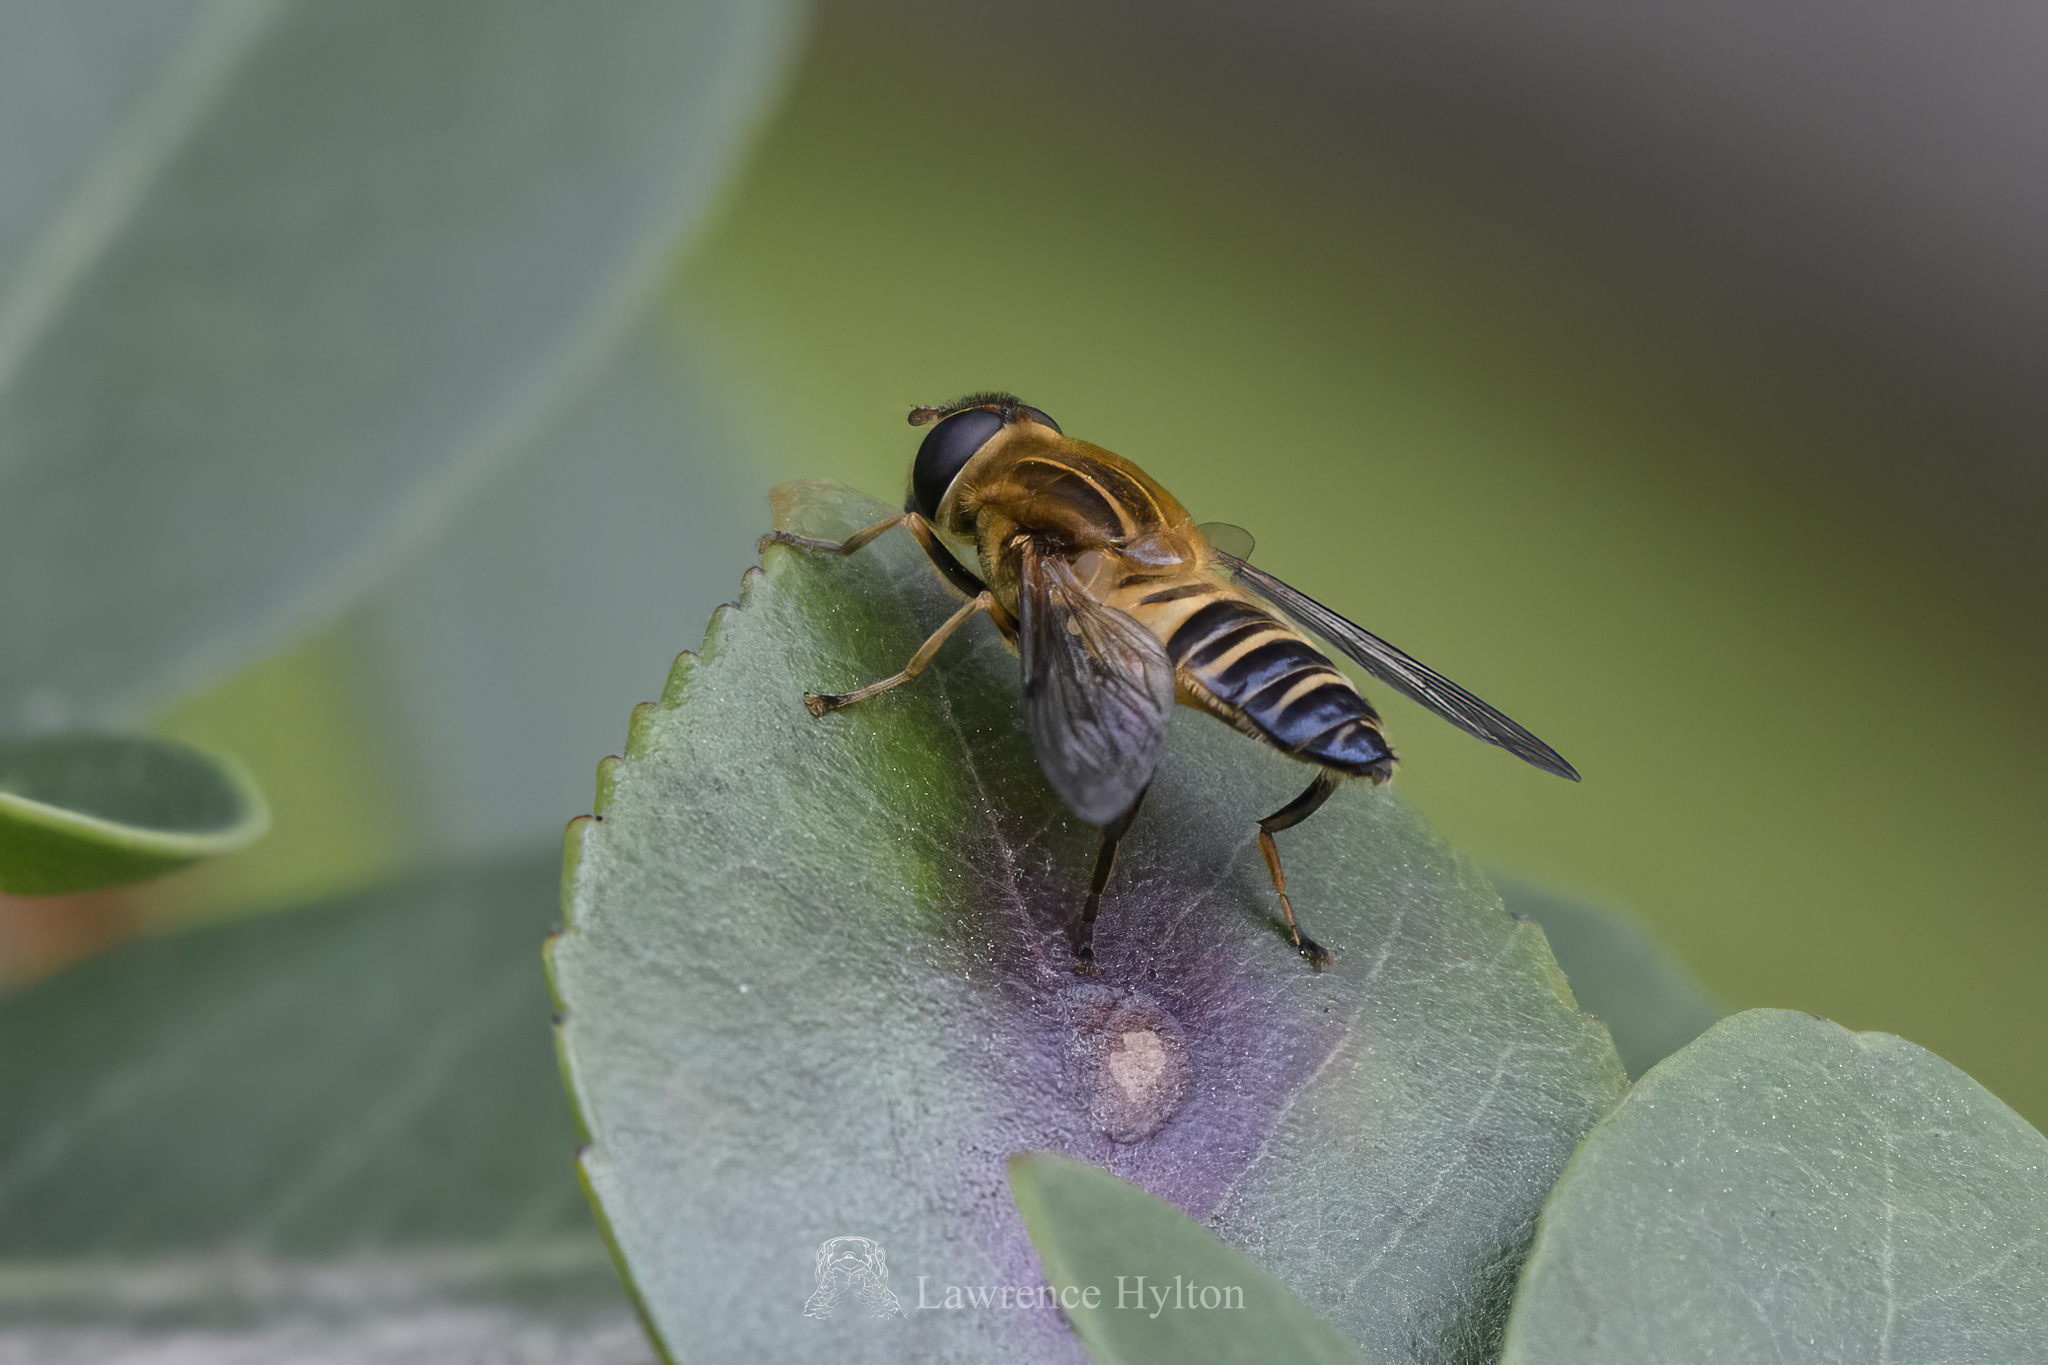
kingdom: Animalia
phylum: Arthropoda
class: Insecta
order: Diptera
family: Syrphidae
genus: Helophilus
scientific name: Helophilus eristaloideus
